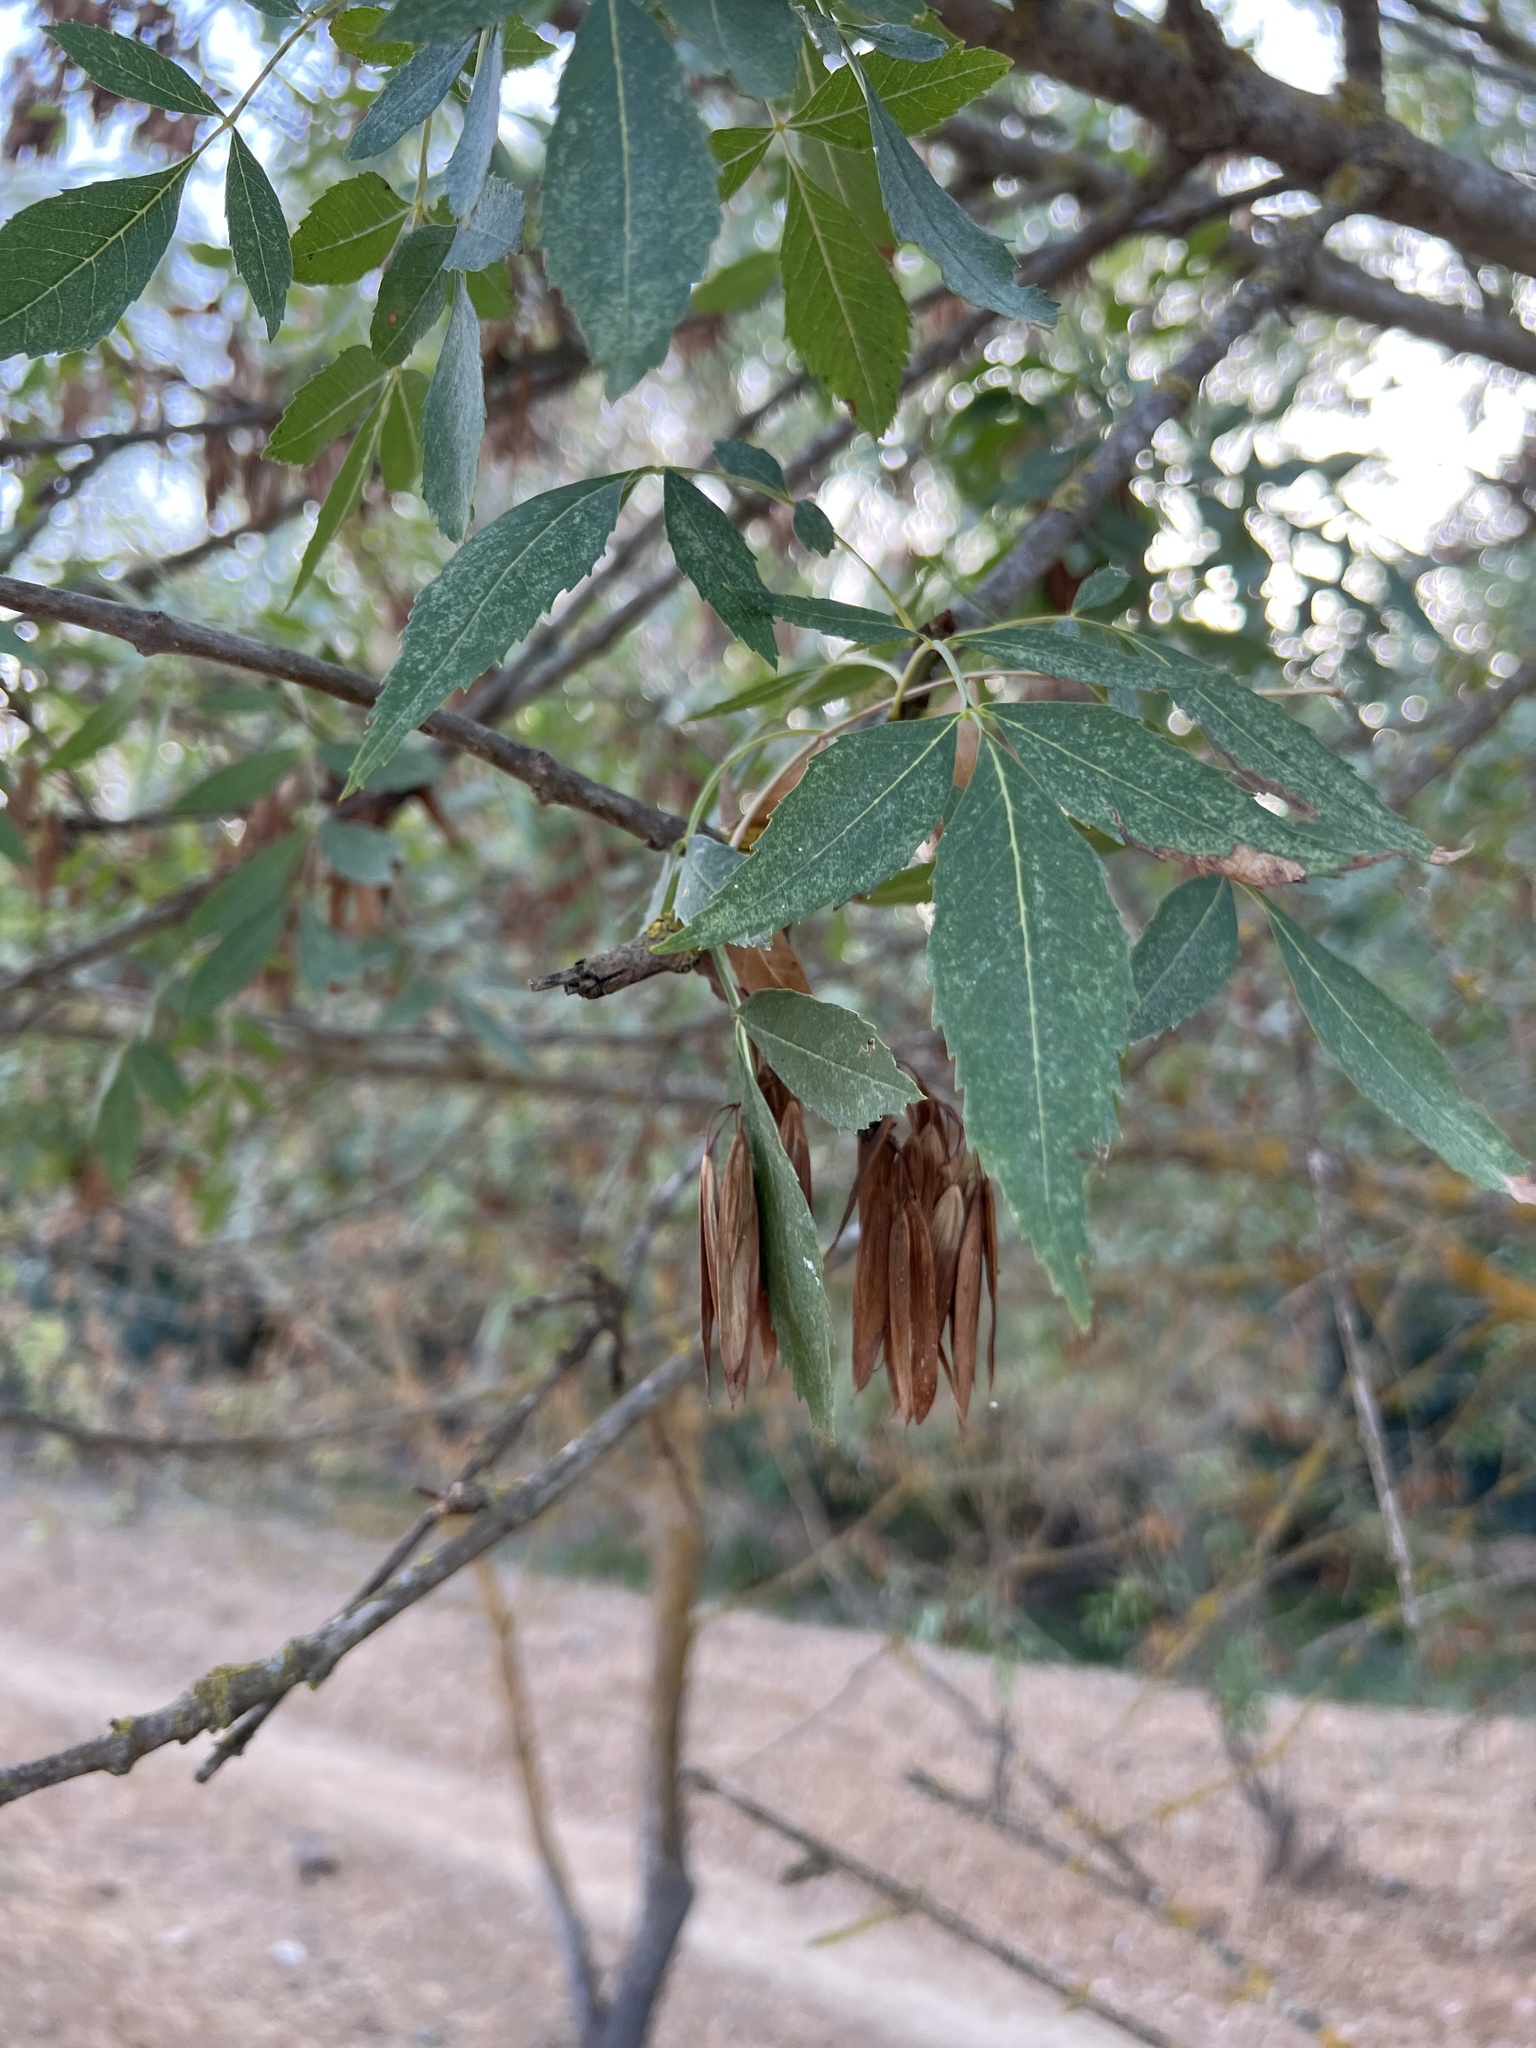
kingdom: Plantae
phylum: Tracheophyta
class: Magnoliopsida
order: Lamiales
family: Oleaceae
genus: Fraxinus
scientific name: Fraxinus angustifolia
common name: Narrow-leafed ash
